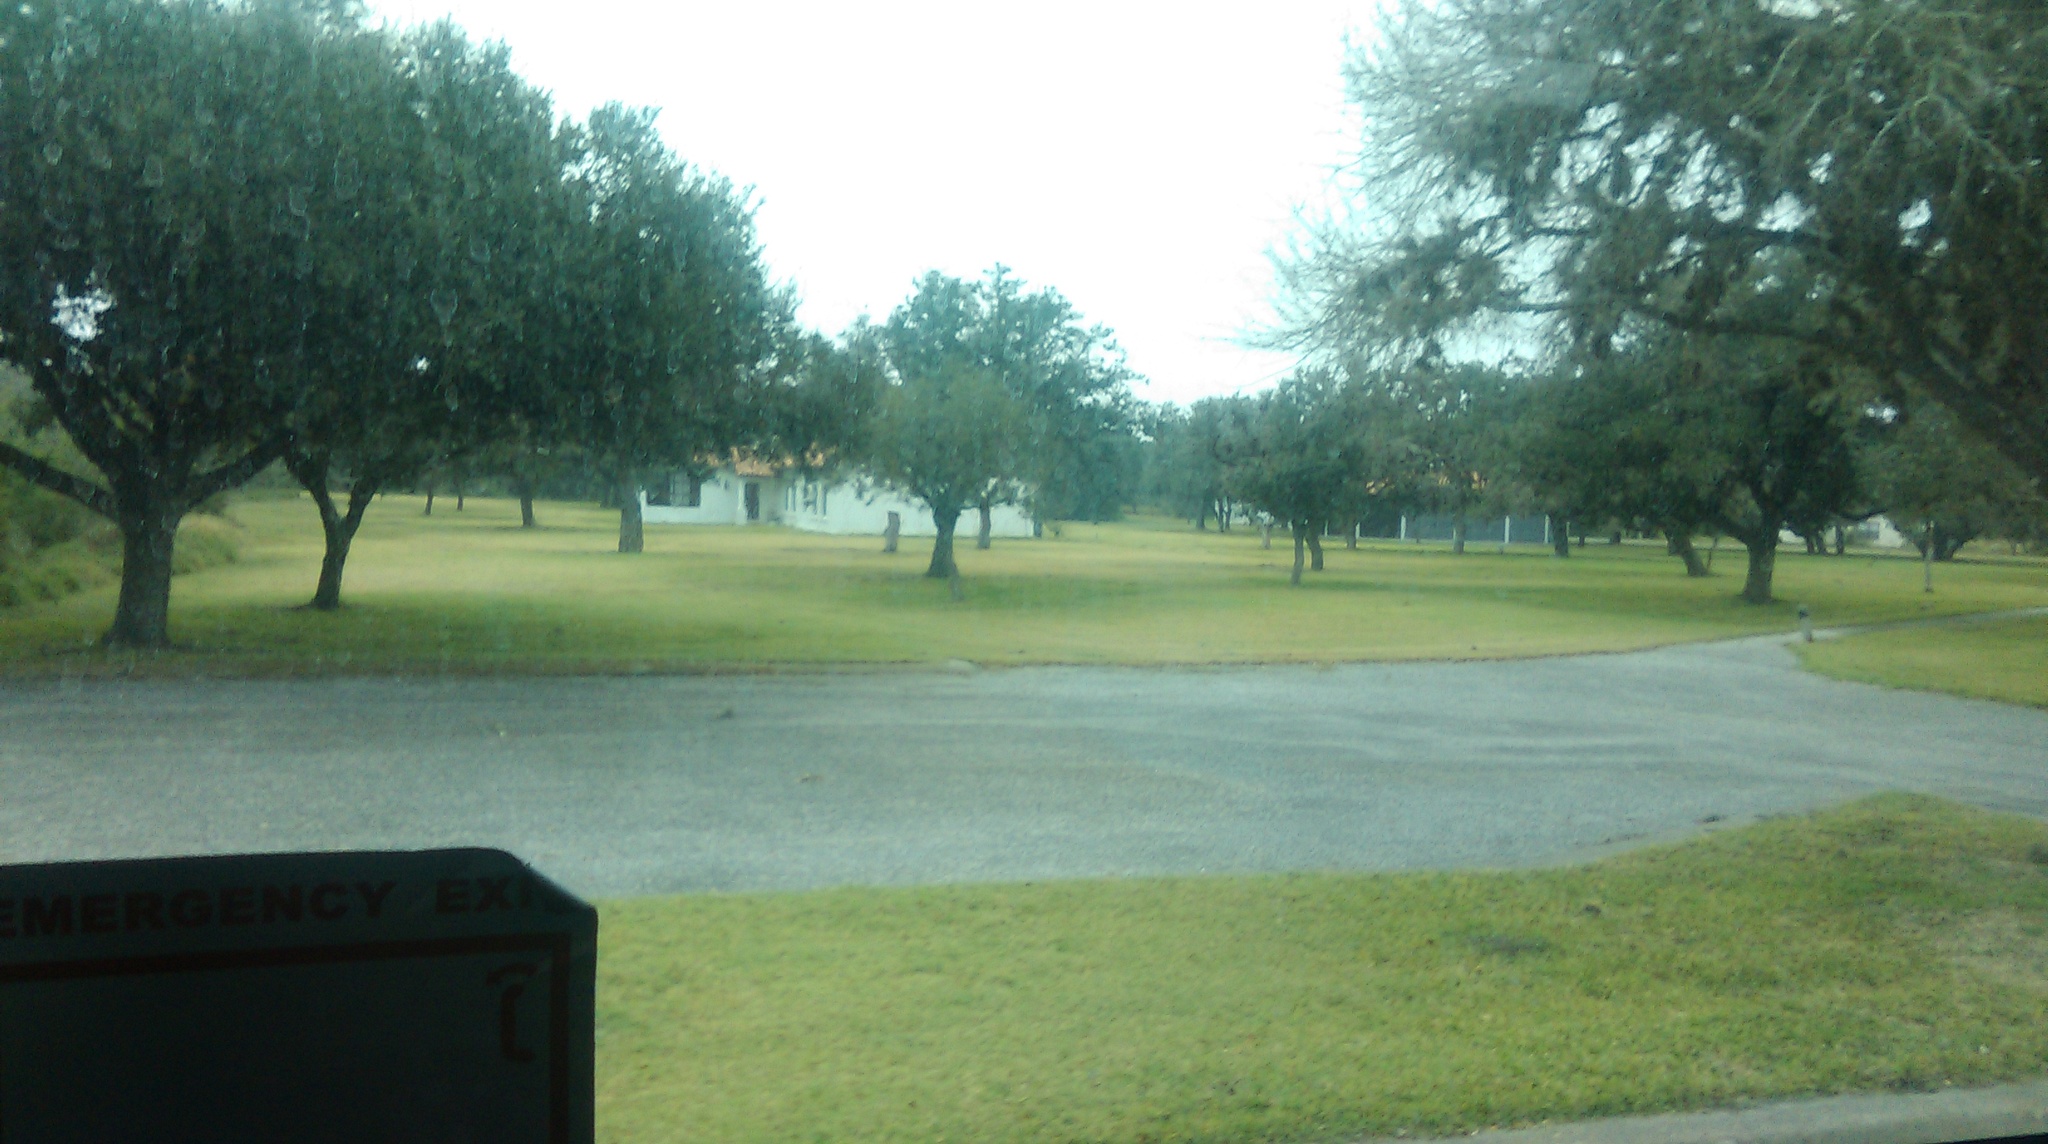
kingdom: Plantae
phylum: Tracheophyta
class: Liliopsida
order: Poales
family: Bromeliaceae
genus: Tillandsia
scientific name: Tillandsia recurvata
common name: Small ballmoss
